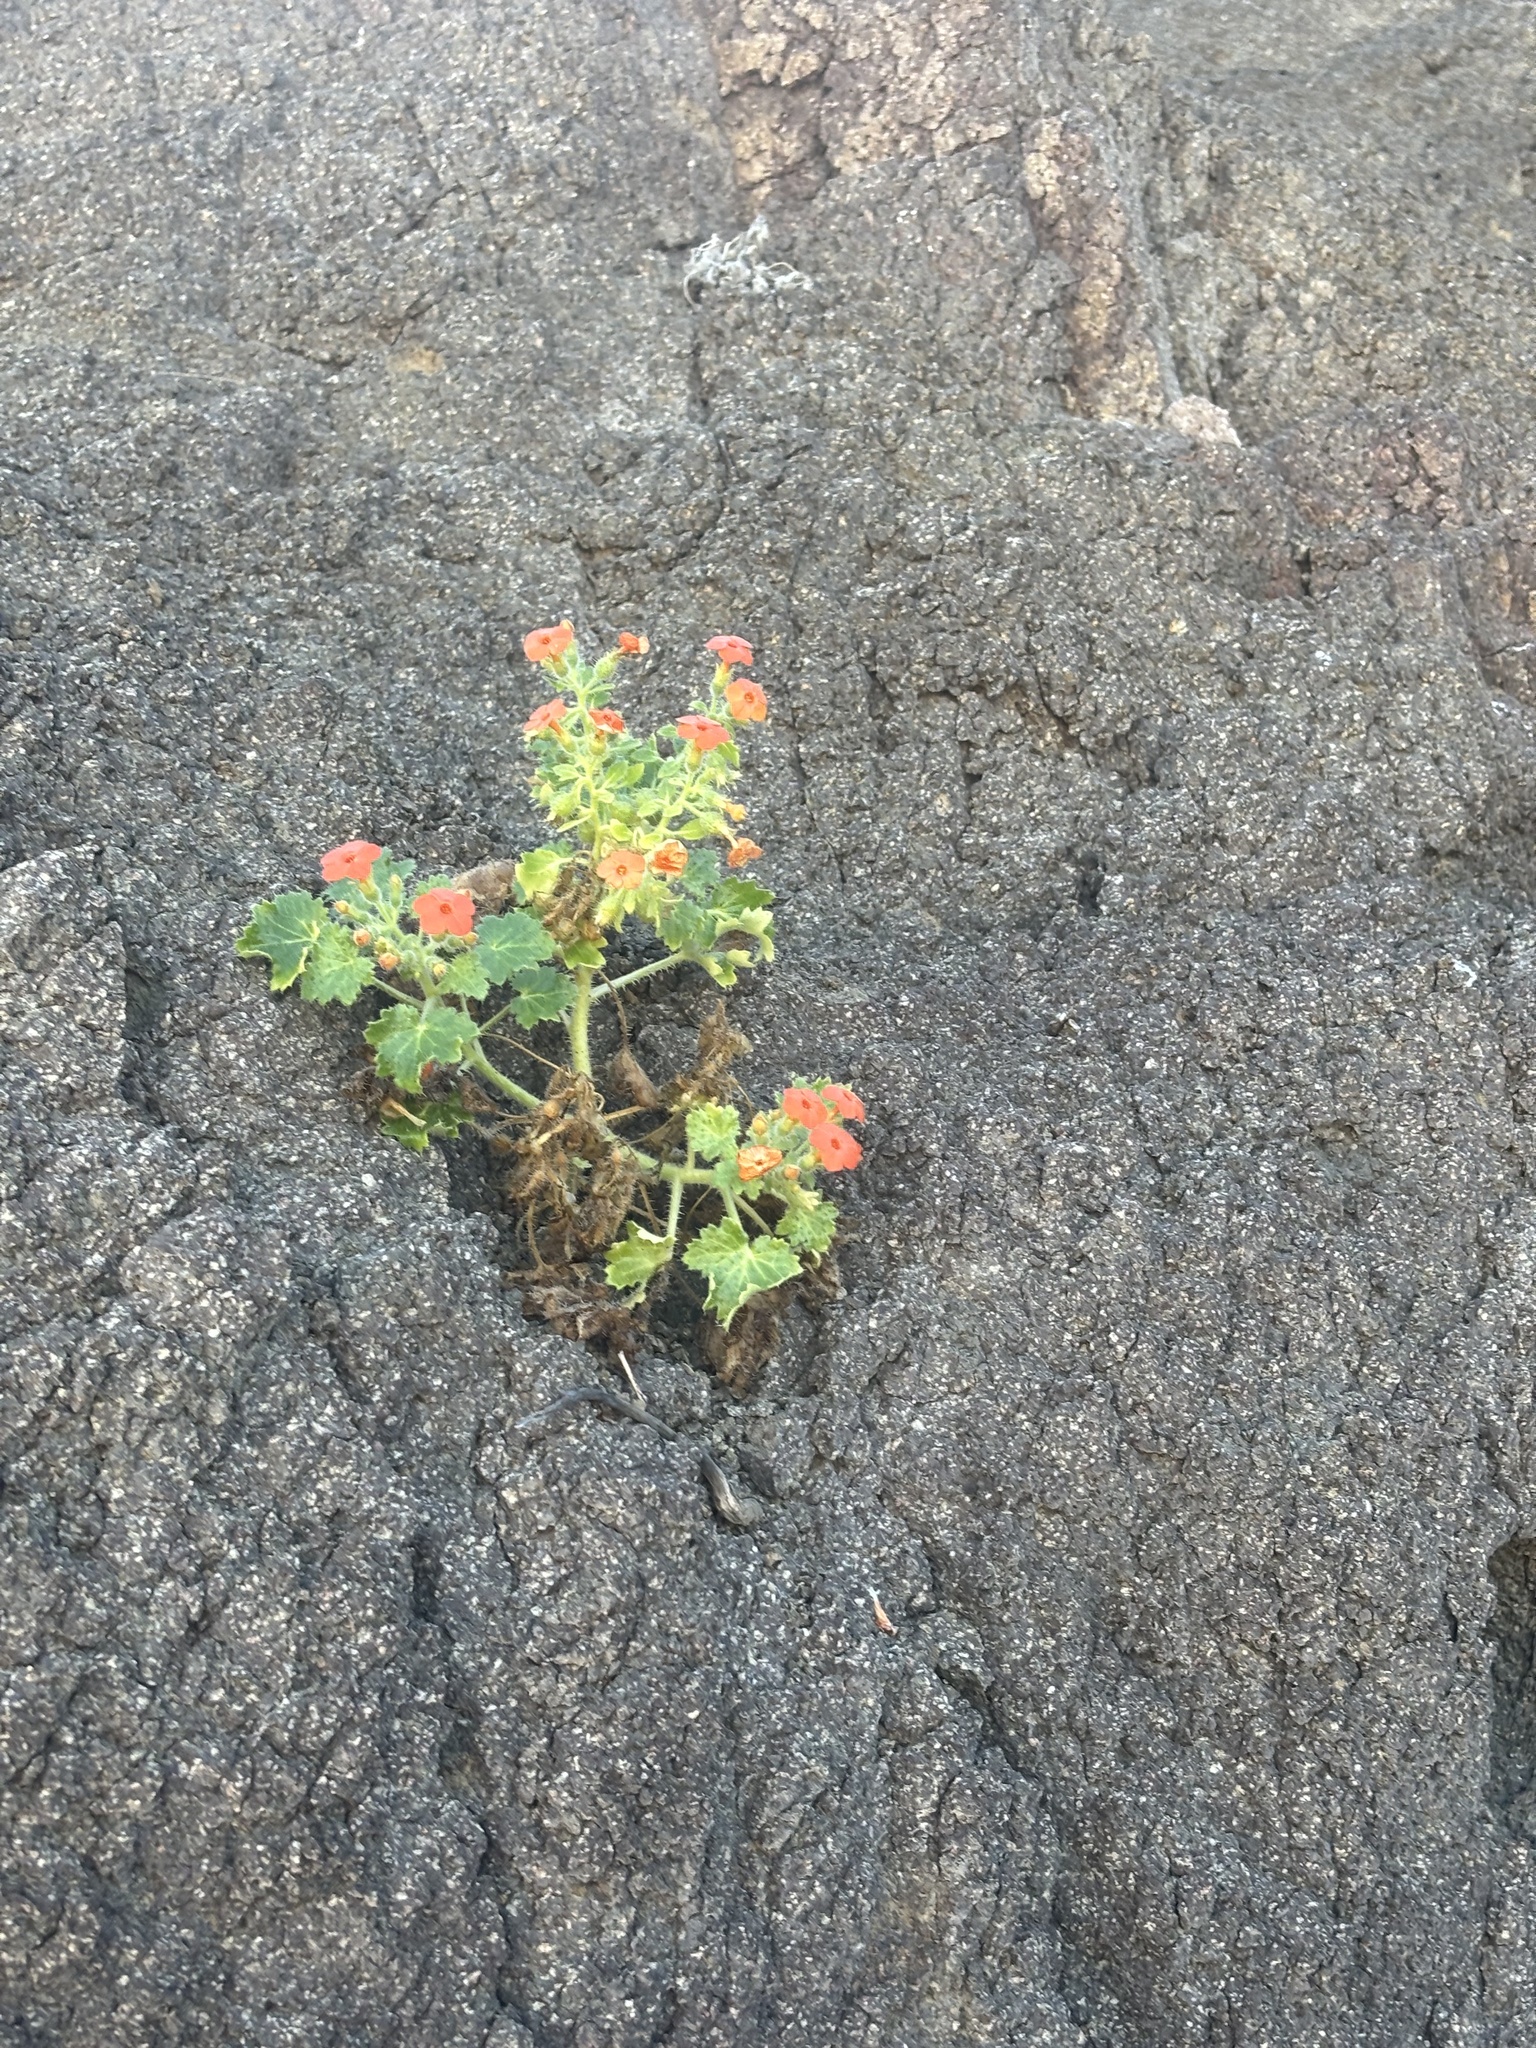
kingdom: Plantae
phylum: Tracheophyta
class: Magnoliopsida
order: Cornales
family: Loasaceae
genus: Eucnide
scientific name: Eucnide aurea
